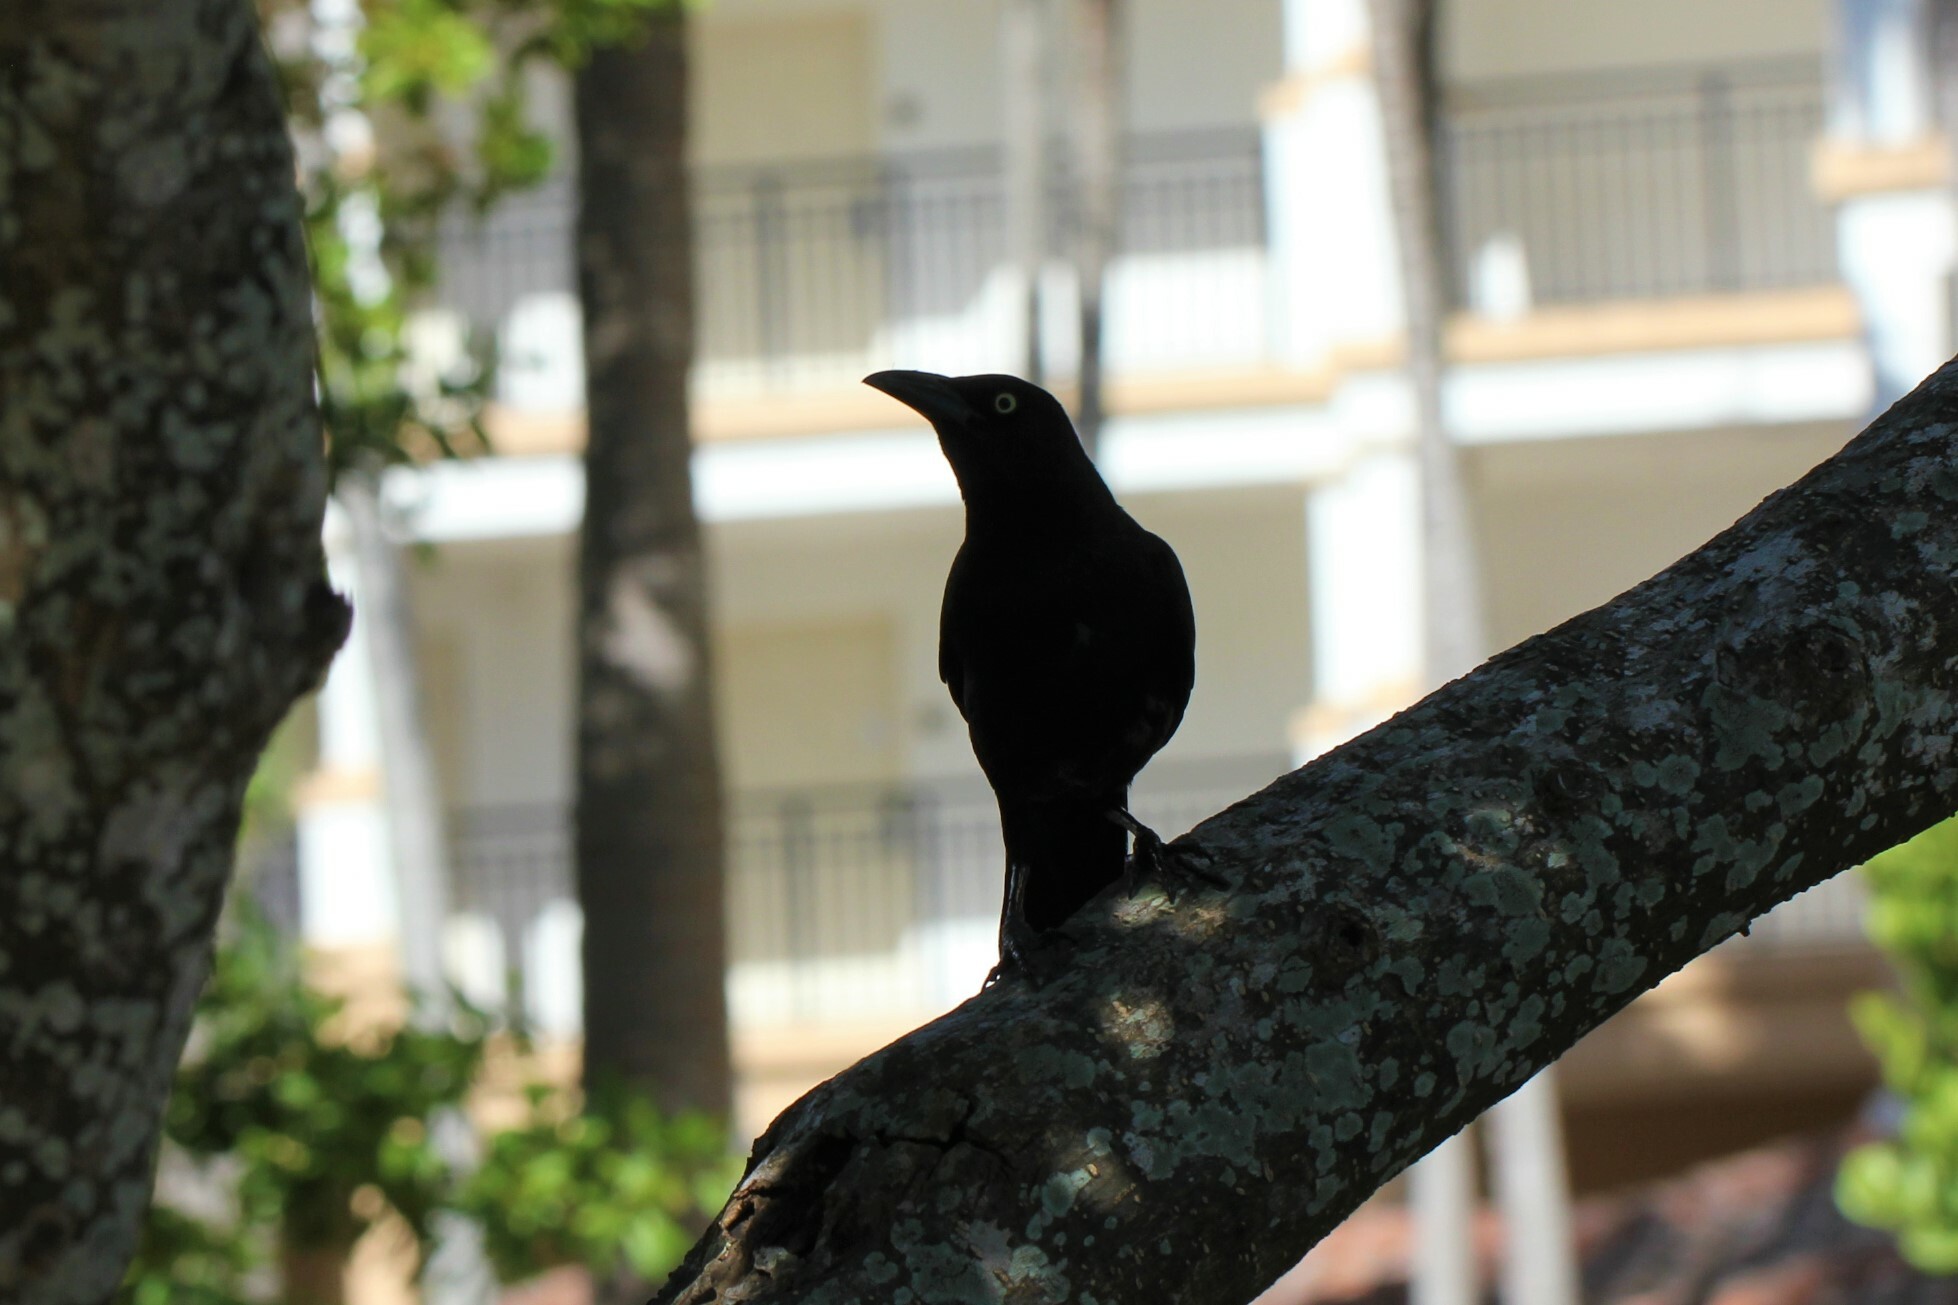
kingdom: Animalia
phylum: Chordata
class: Aves
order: Passeriformes
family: Icteridae
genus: Quiscalus
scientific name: Quiscalus quiscula
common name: Common grackle
